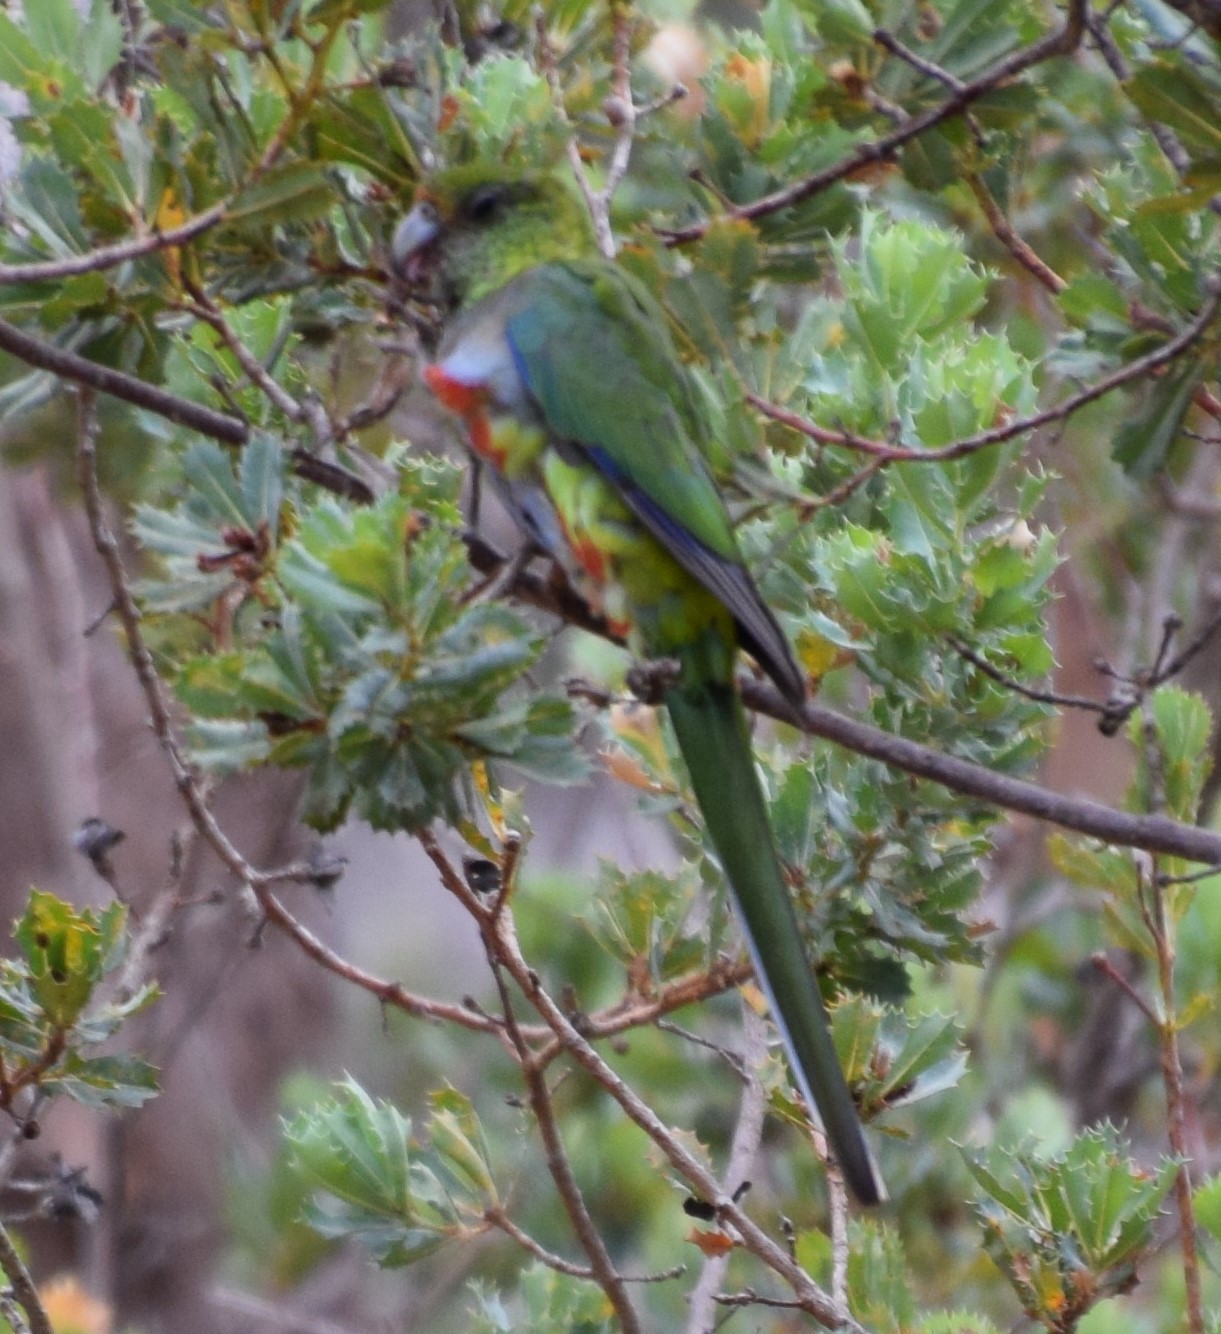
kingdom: Animalia
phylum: Chordata
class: Aves
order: Psittaciformes
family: Psittacidae
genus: Purpureicephalus
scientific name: Purpureicephalus spurius
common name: Red-capped parrot
